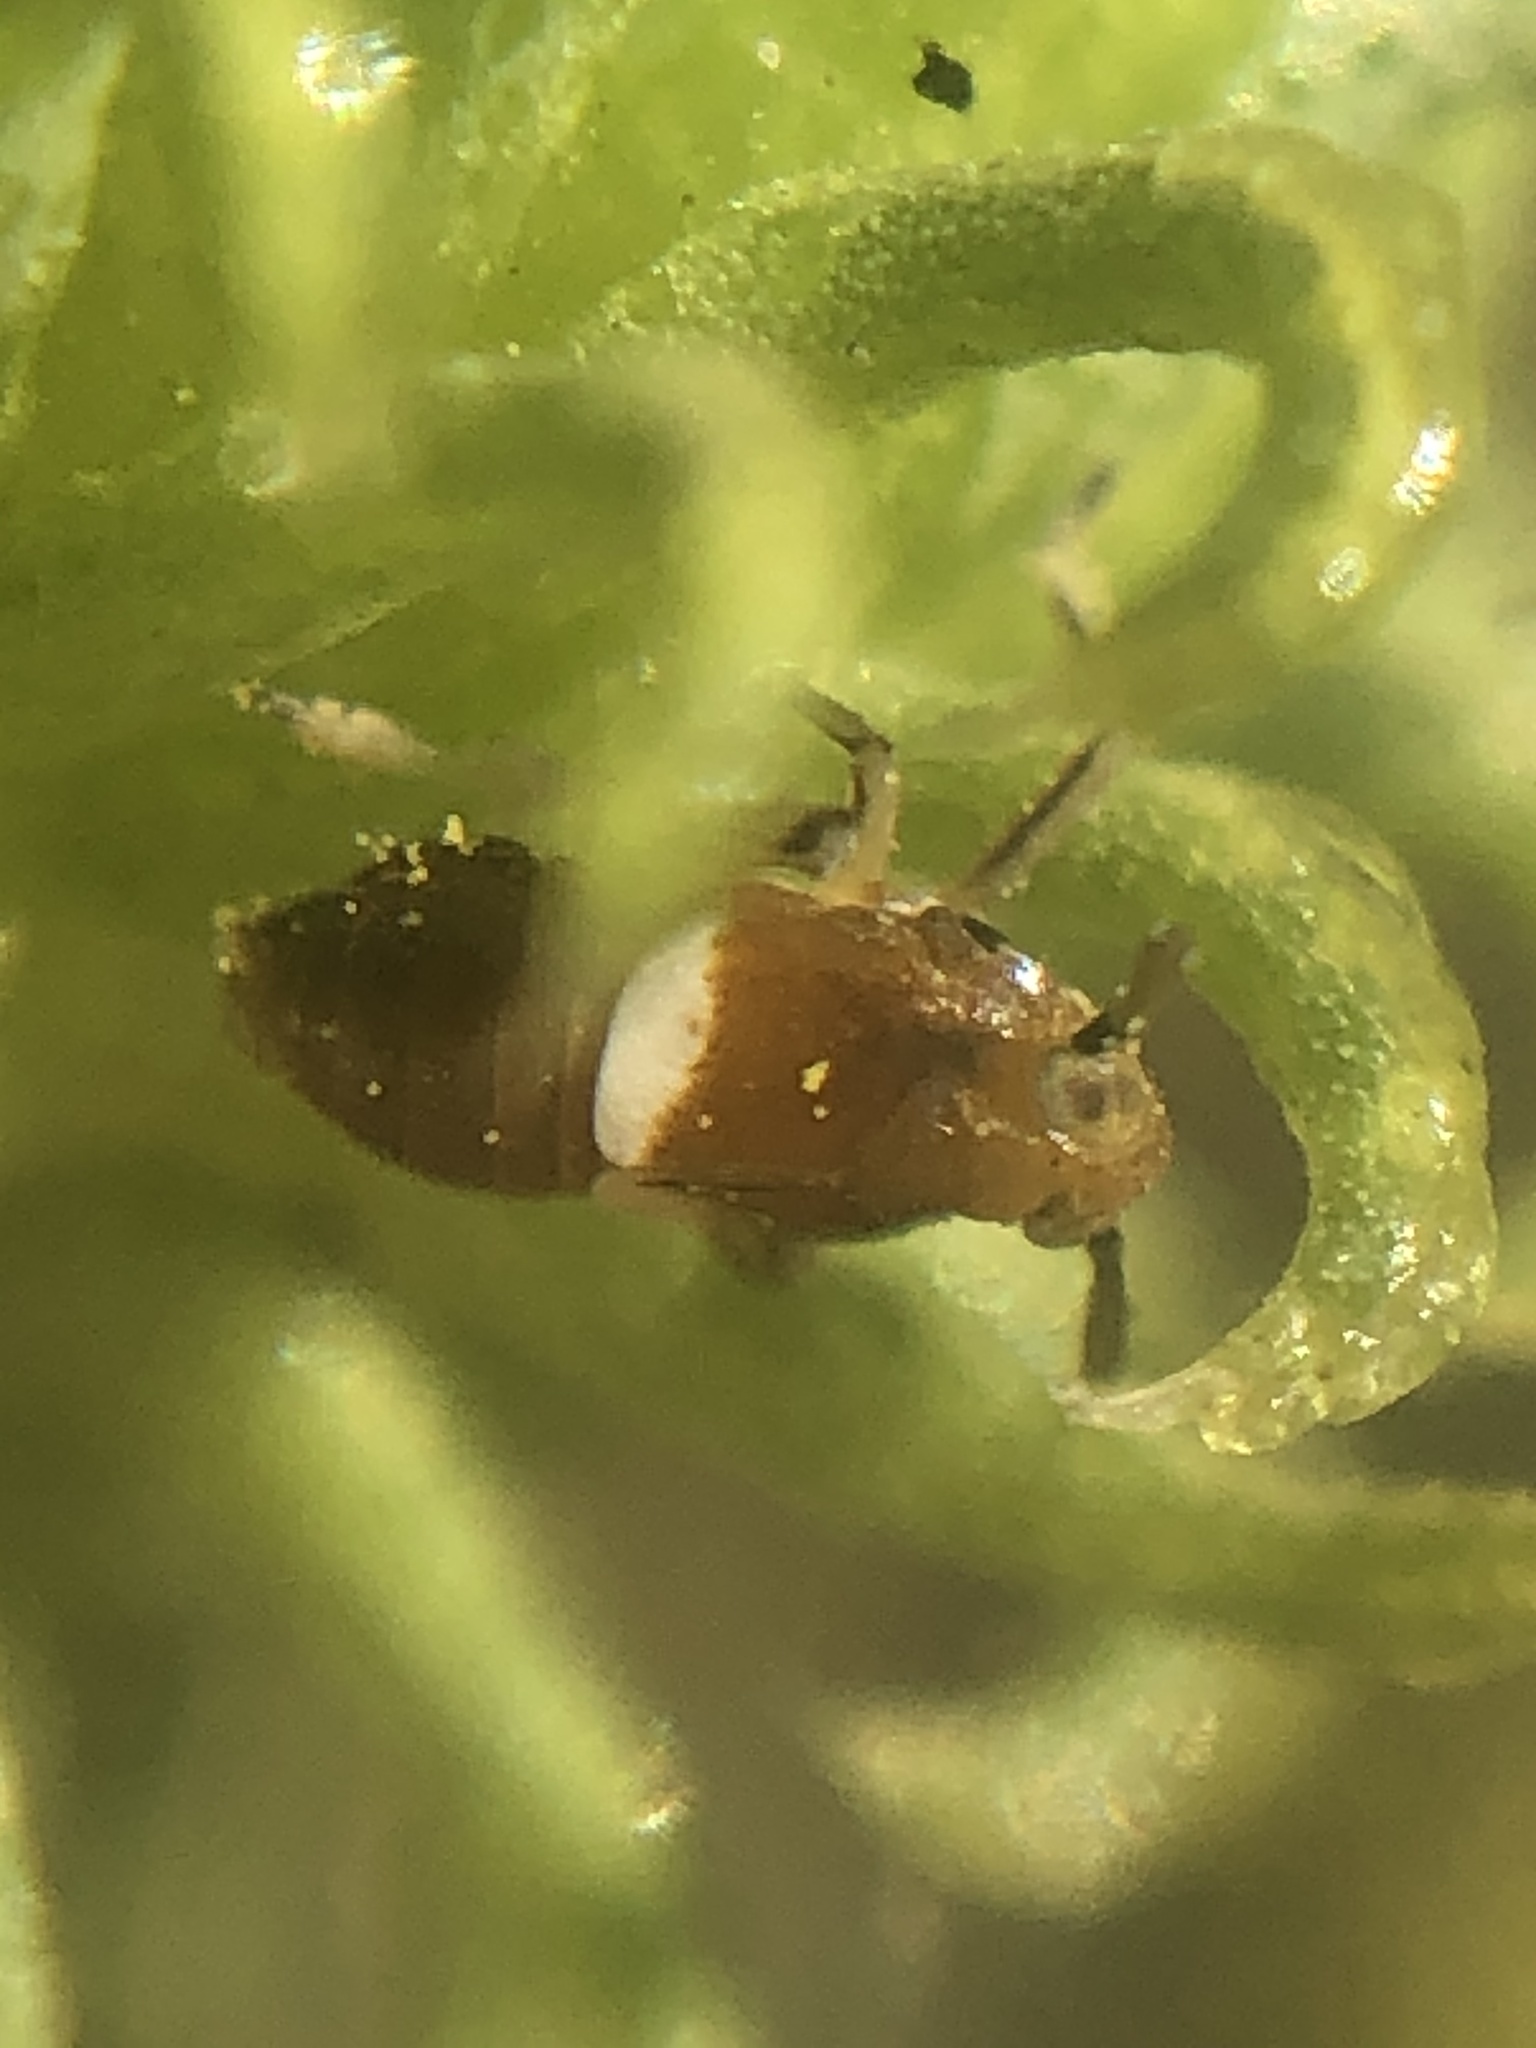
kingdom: Animalia
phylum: Arthropoda
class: Insecta
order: Hemiptera
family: Delphacidae
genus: Pissonotus
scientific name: Pissonotus delicatus
